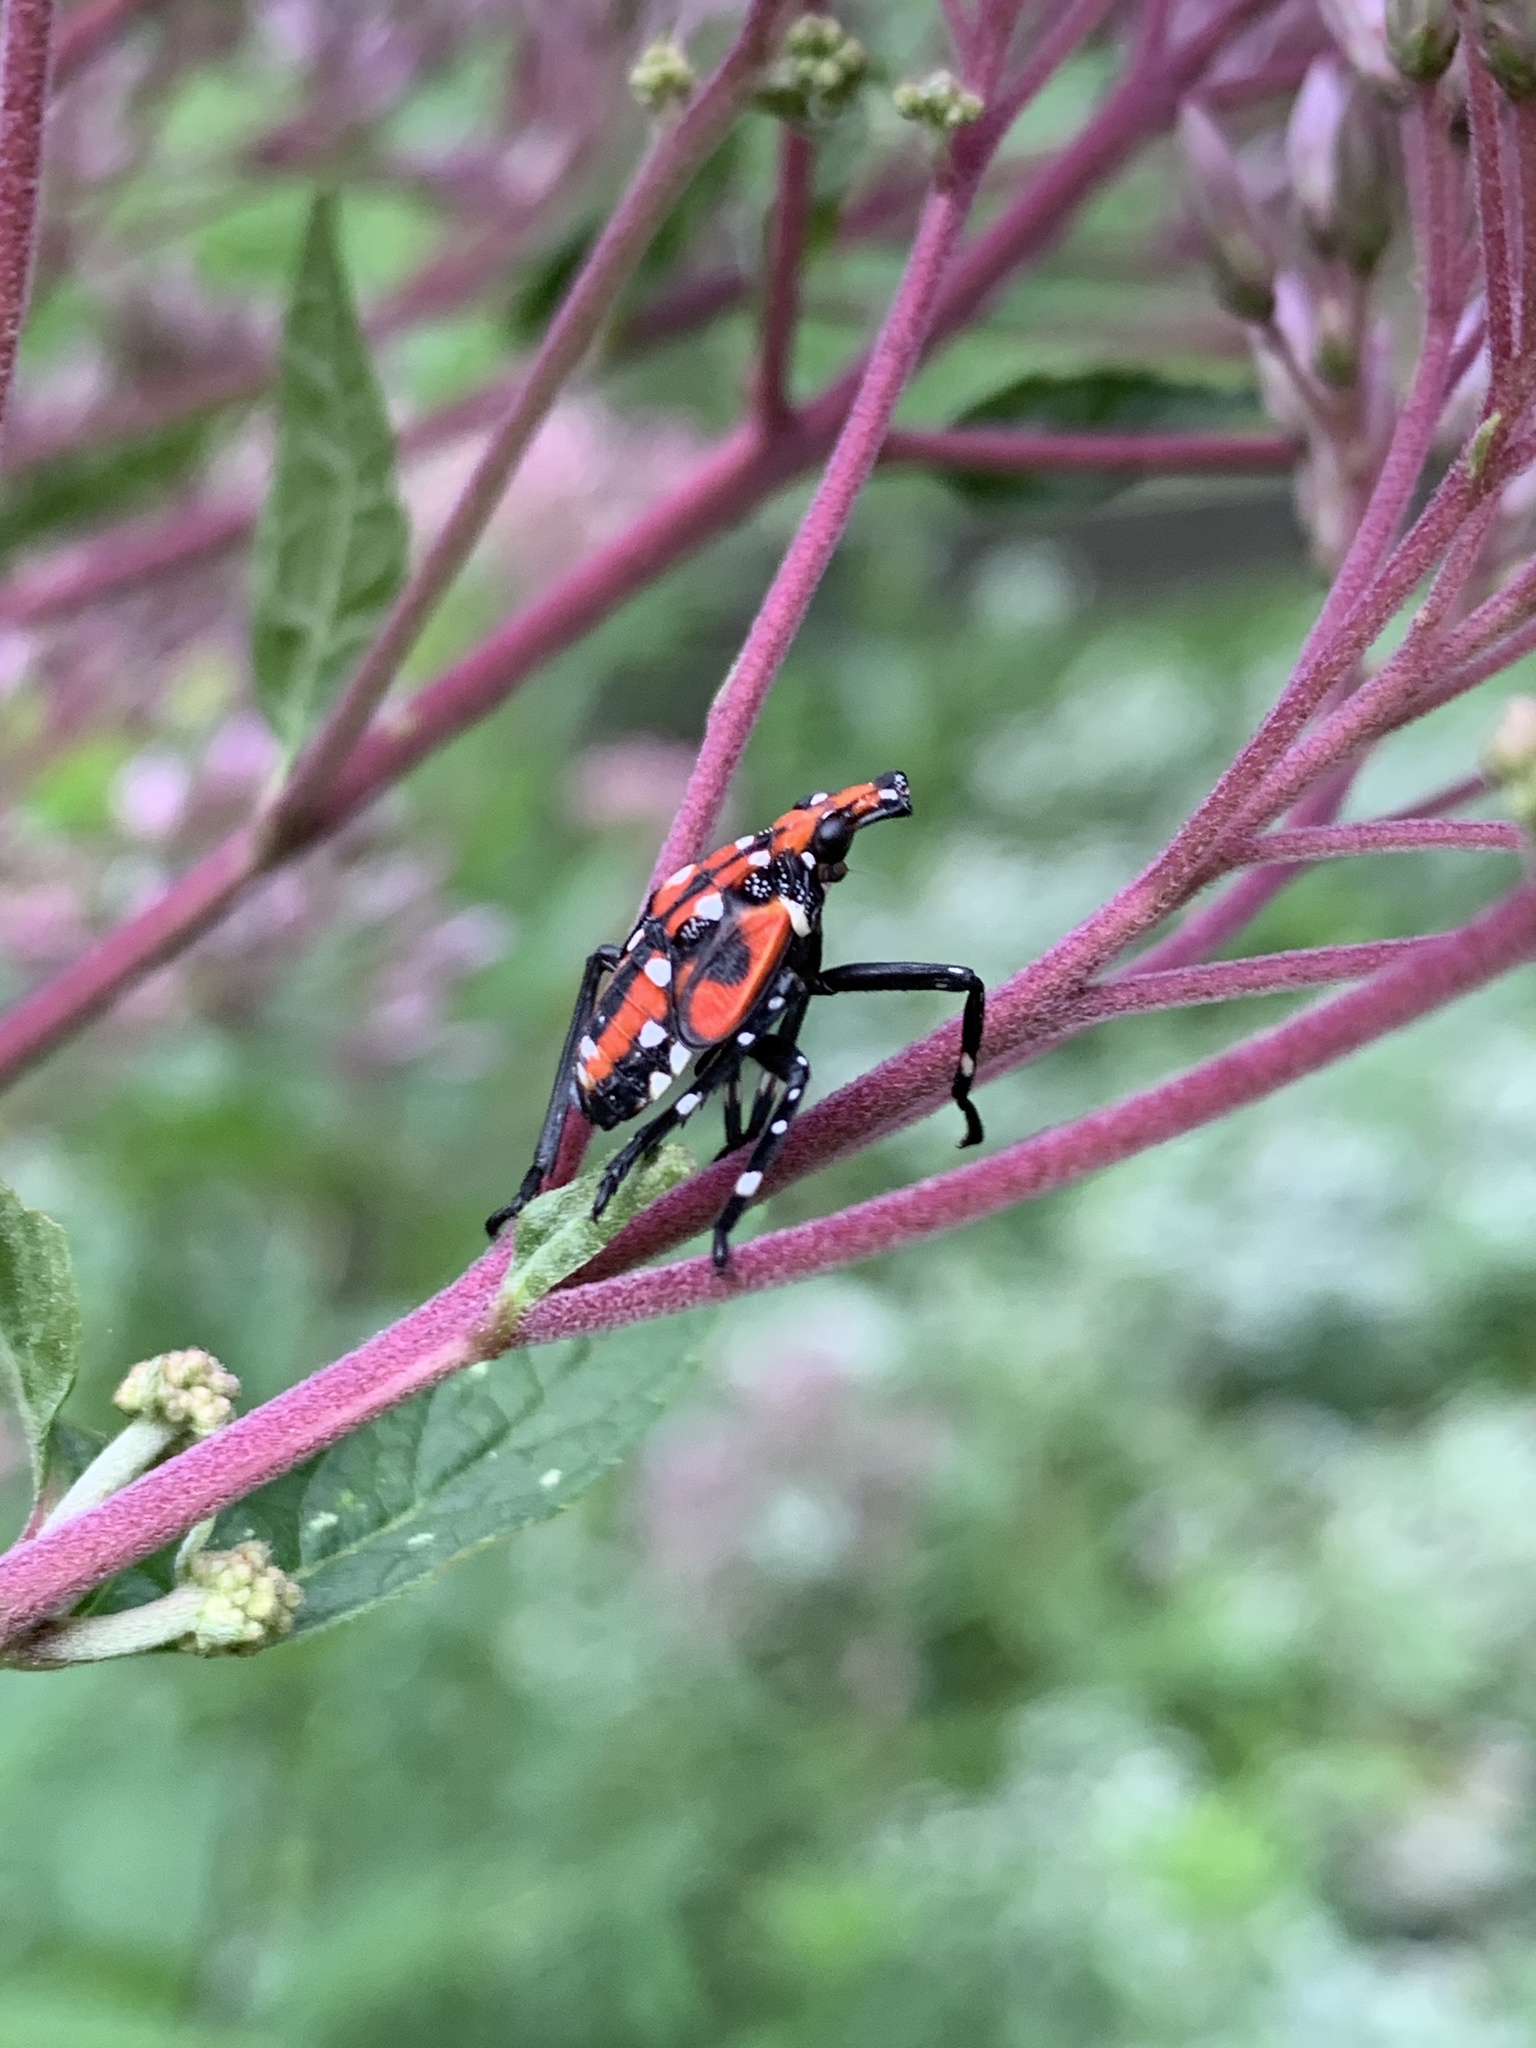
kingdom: Animalia
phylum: Arthropoda
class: Insecta
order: Hemiptera
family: Fulgoridae
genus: Lycorma
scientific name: Lycorma delicatula
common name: Spotted lanternfly
